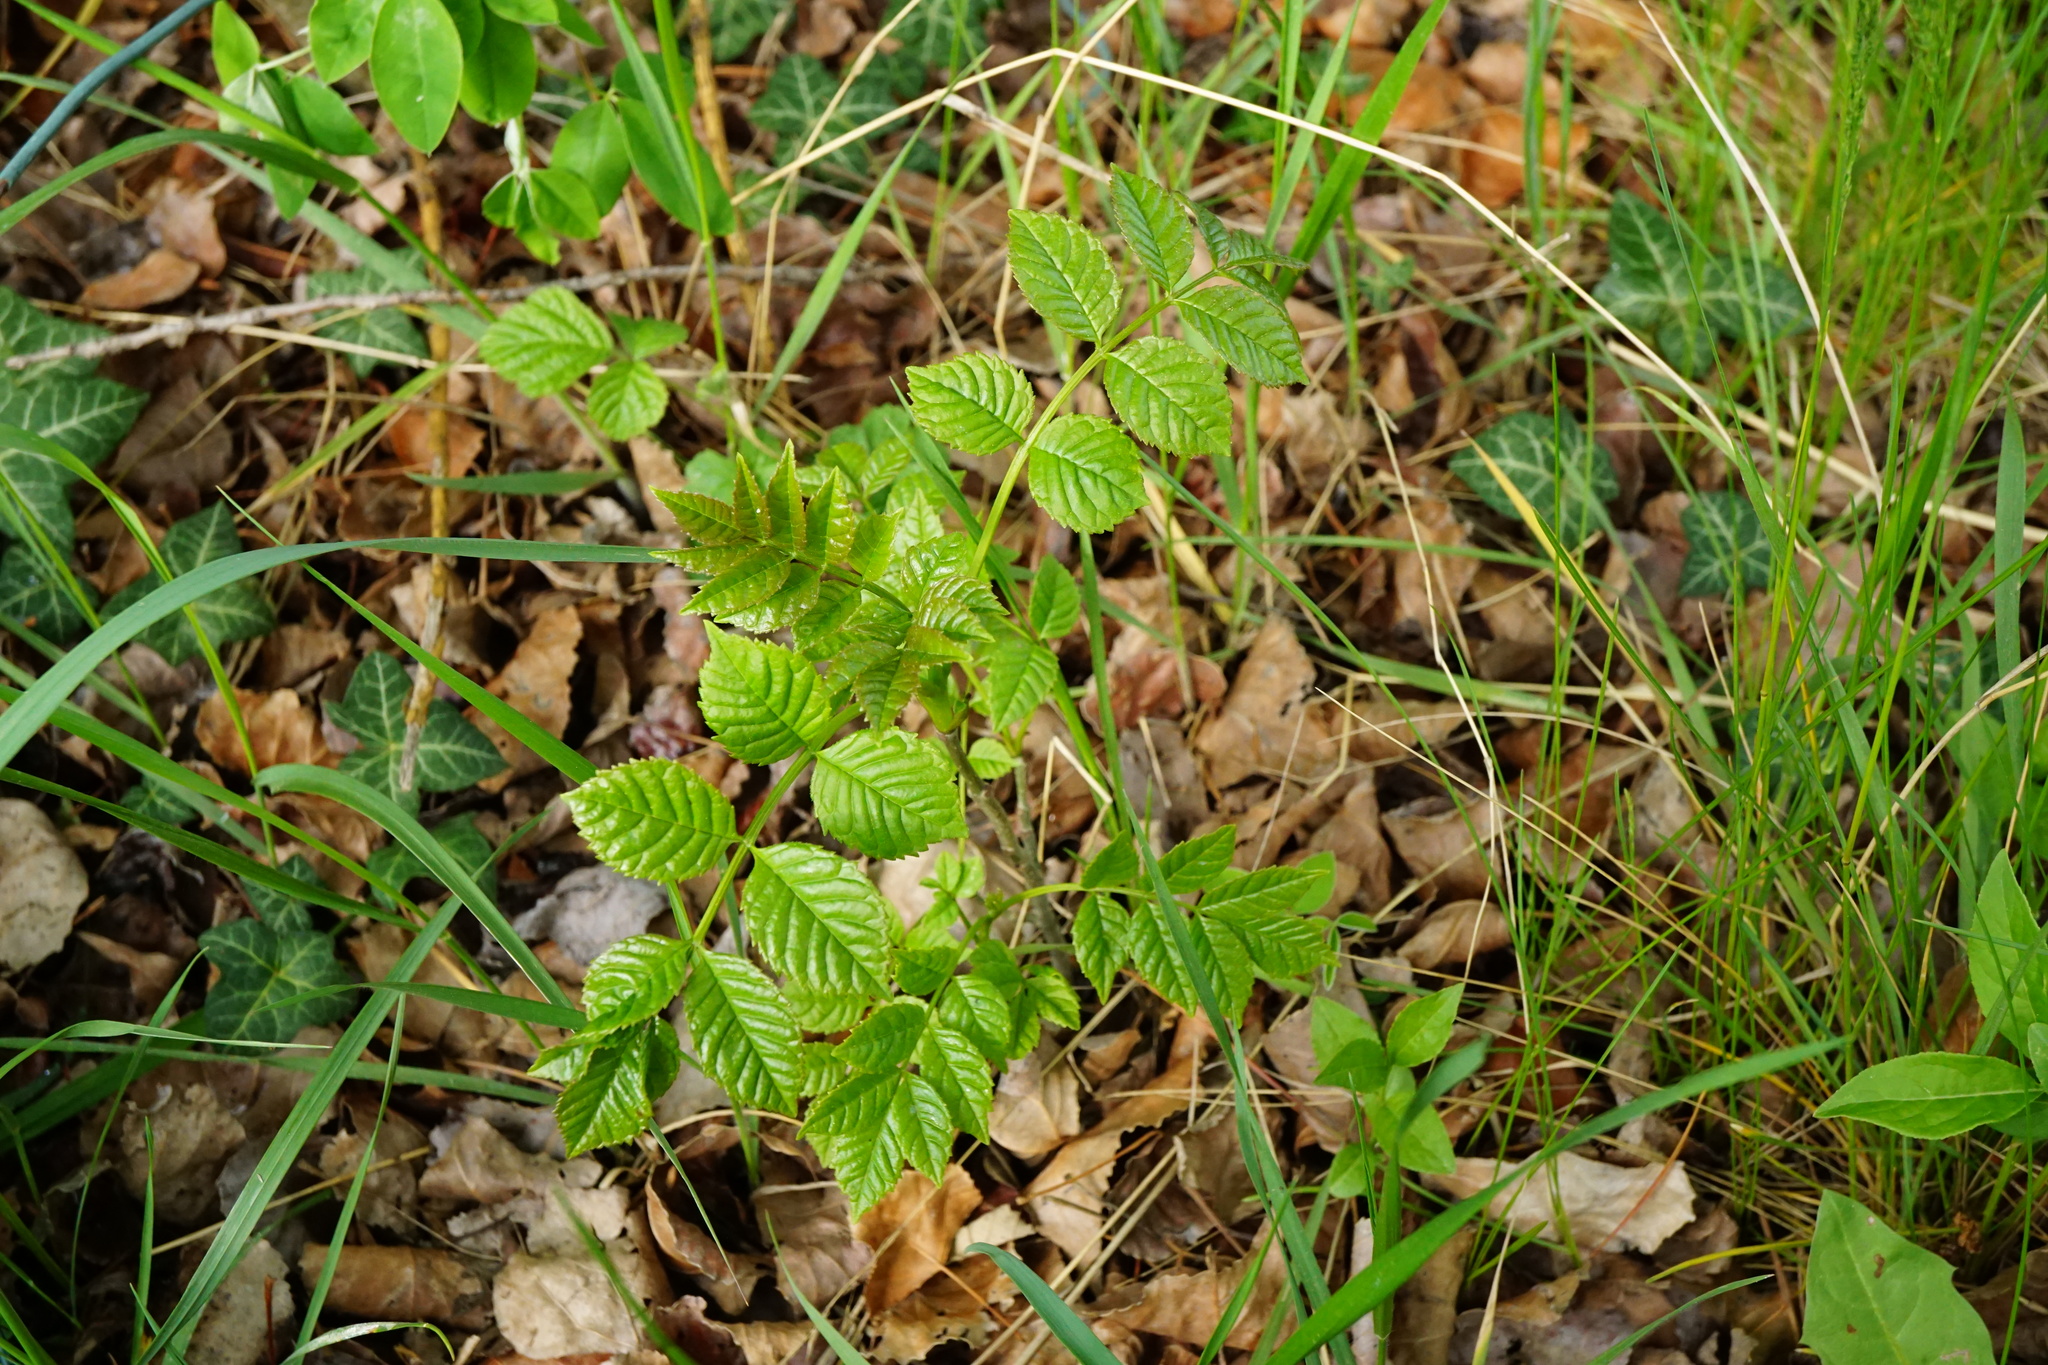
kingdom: Plantae
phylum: Tracheophyta
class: Magnoliopsida
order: Lamiales
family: Oleaceae
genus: Fraxinus
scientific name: Fraxinus excelsior
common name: European ash
